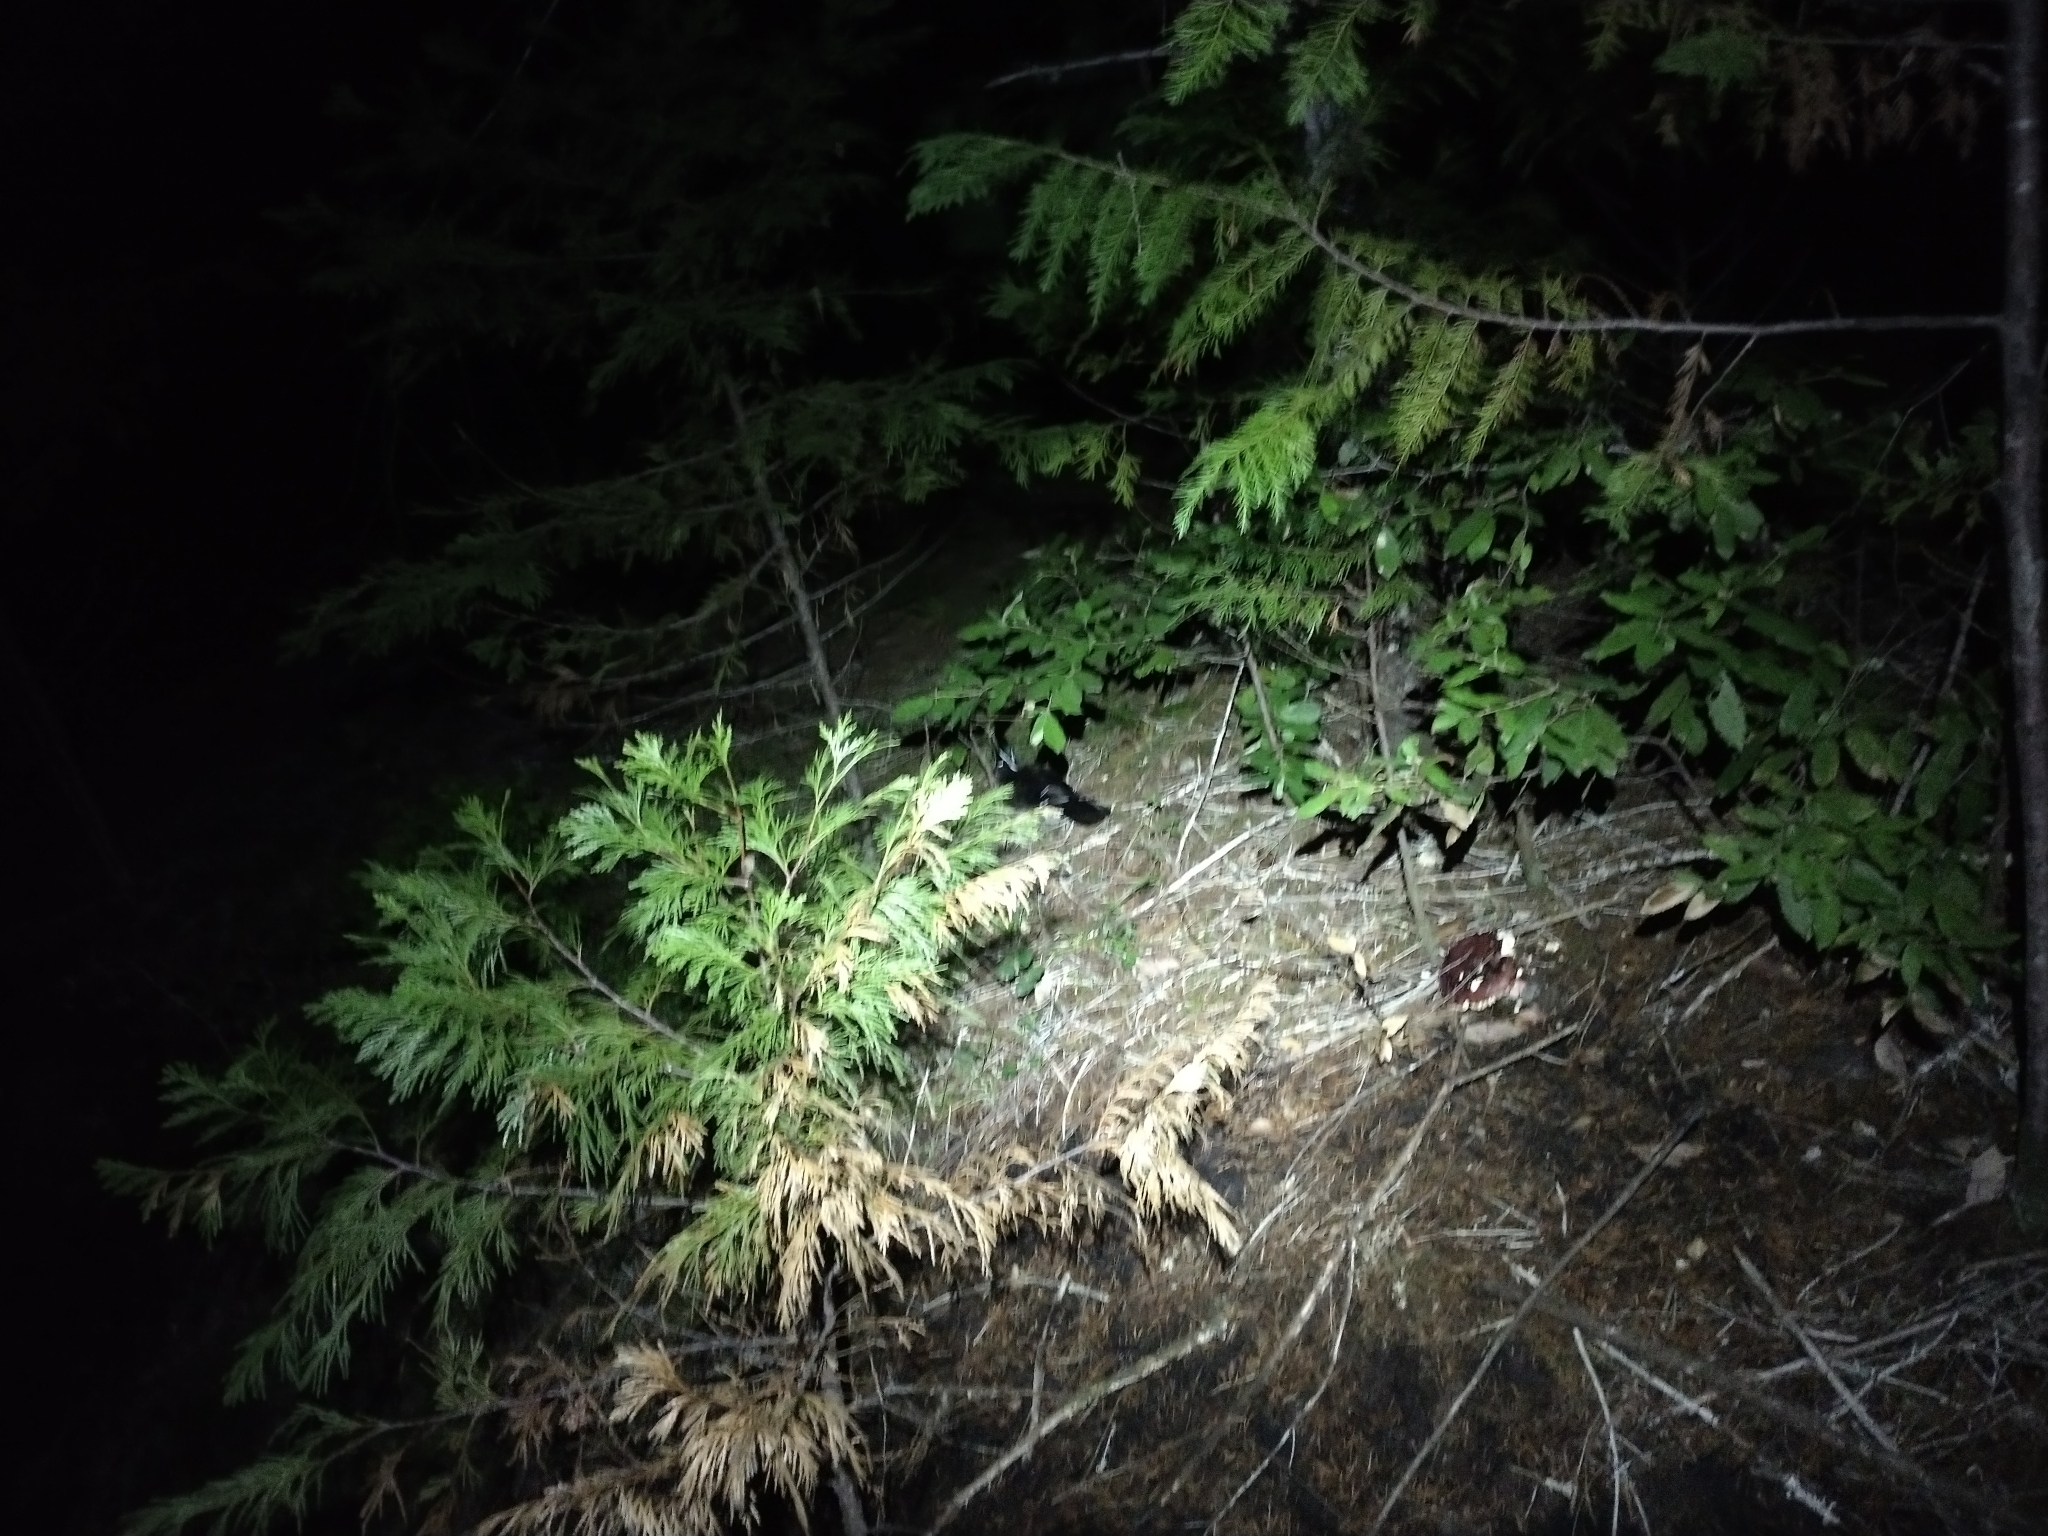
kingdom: Plantae
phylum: Tracheophyta
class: Pinopsida
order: Pinales
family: Cupressaceae
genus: Chamaecyparis
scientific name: Chamaecyparis lawsoniana
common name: Lawson's cypress
